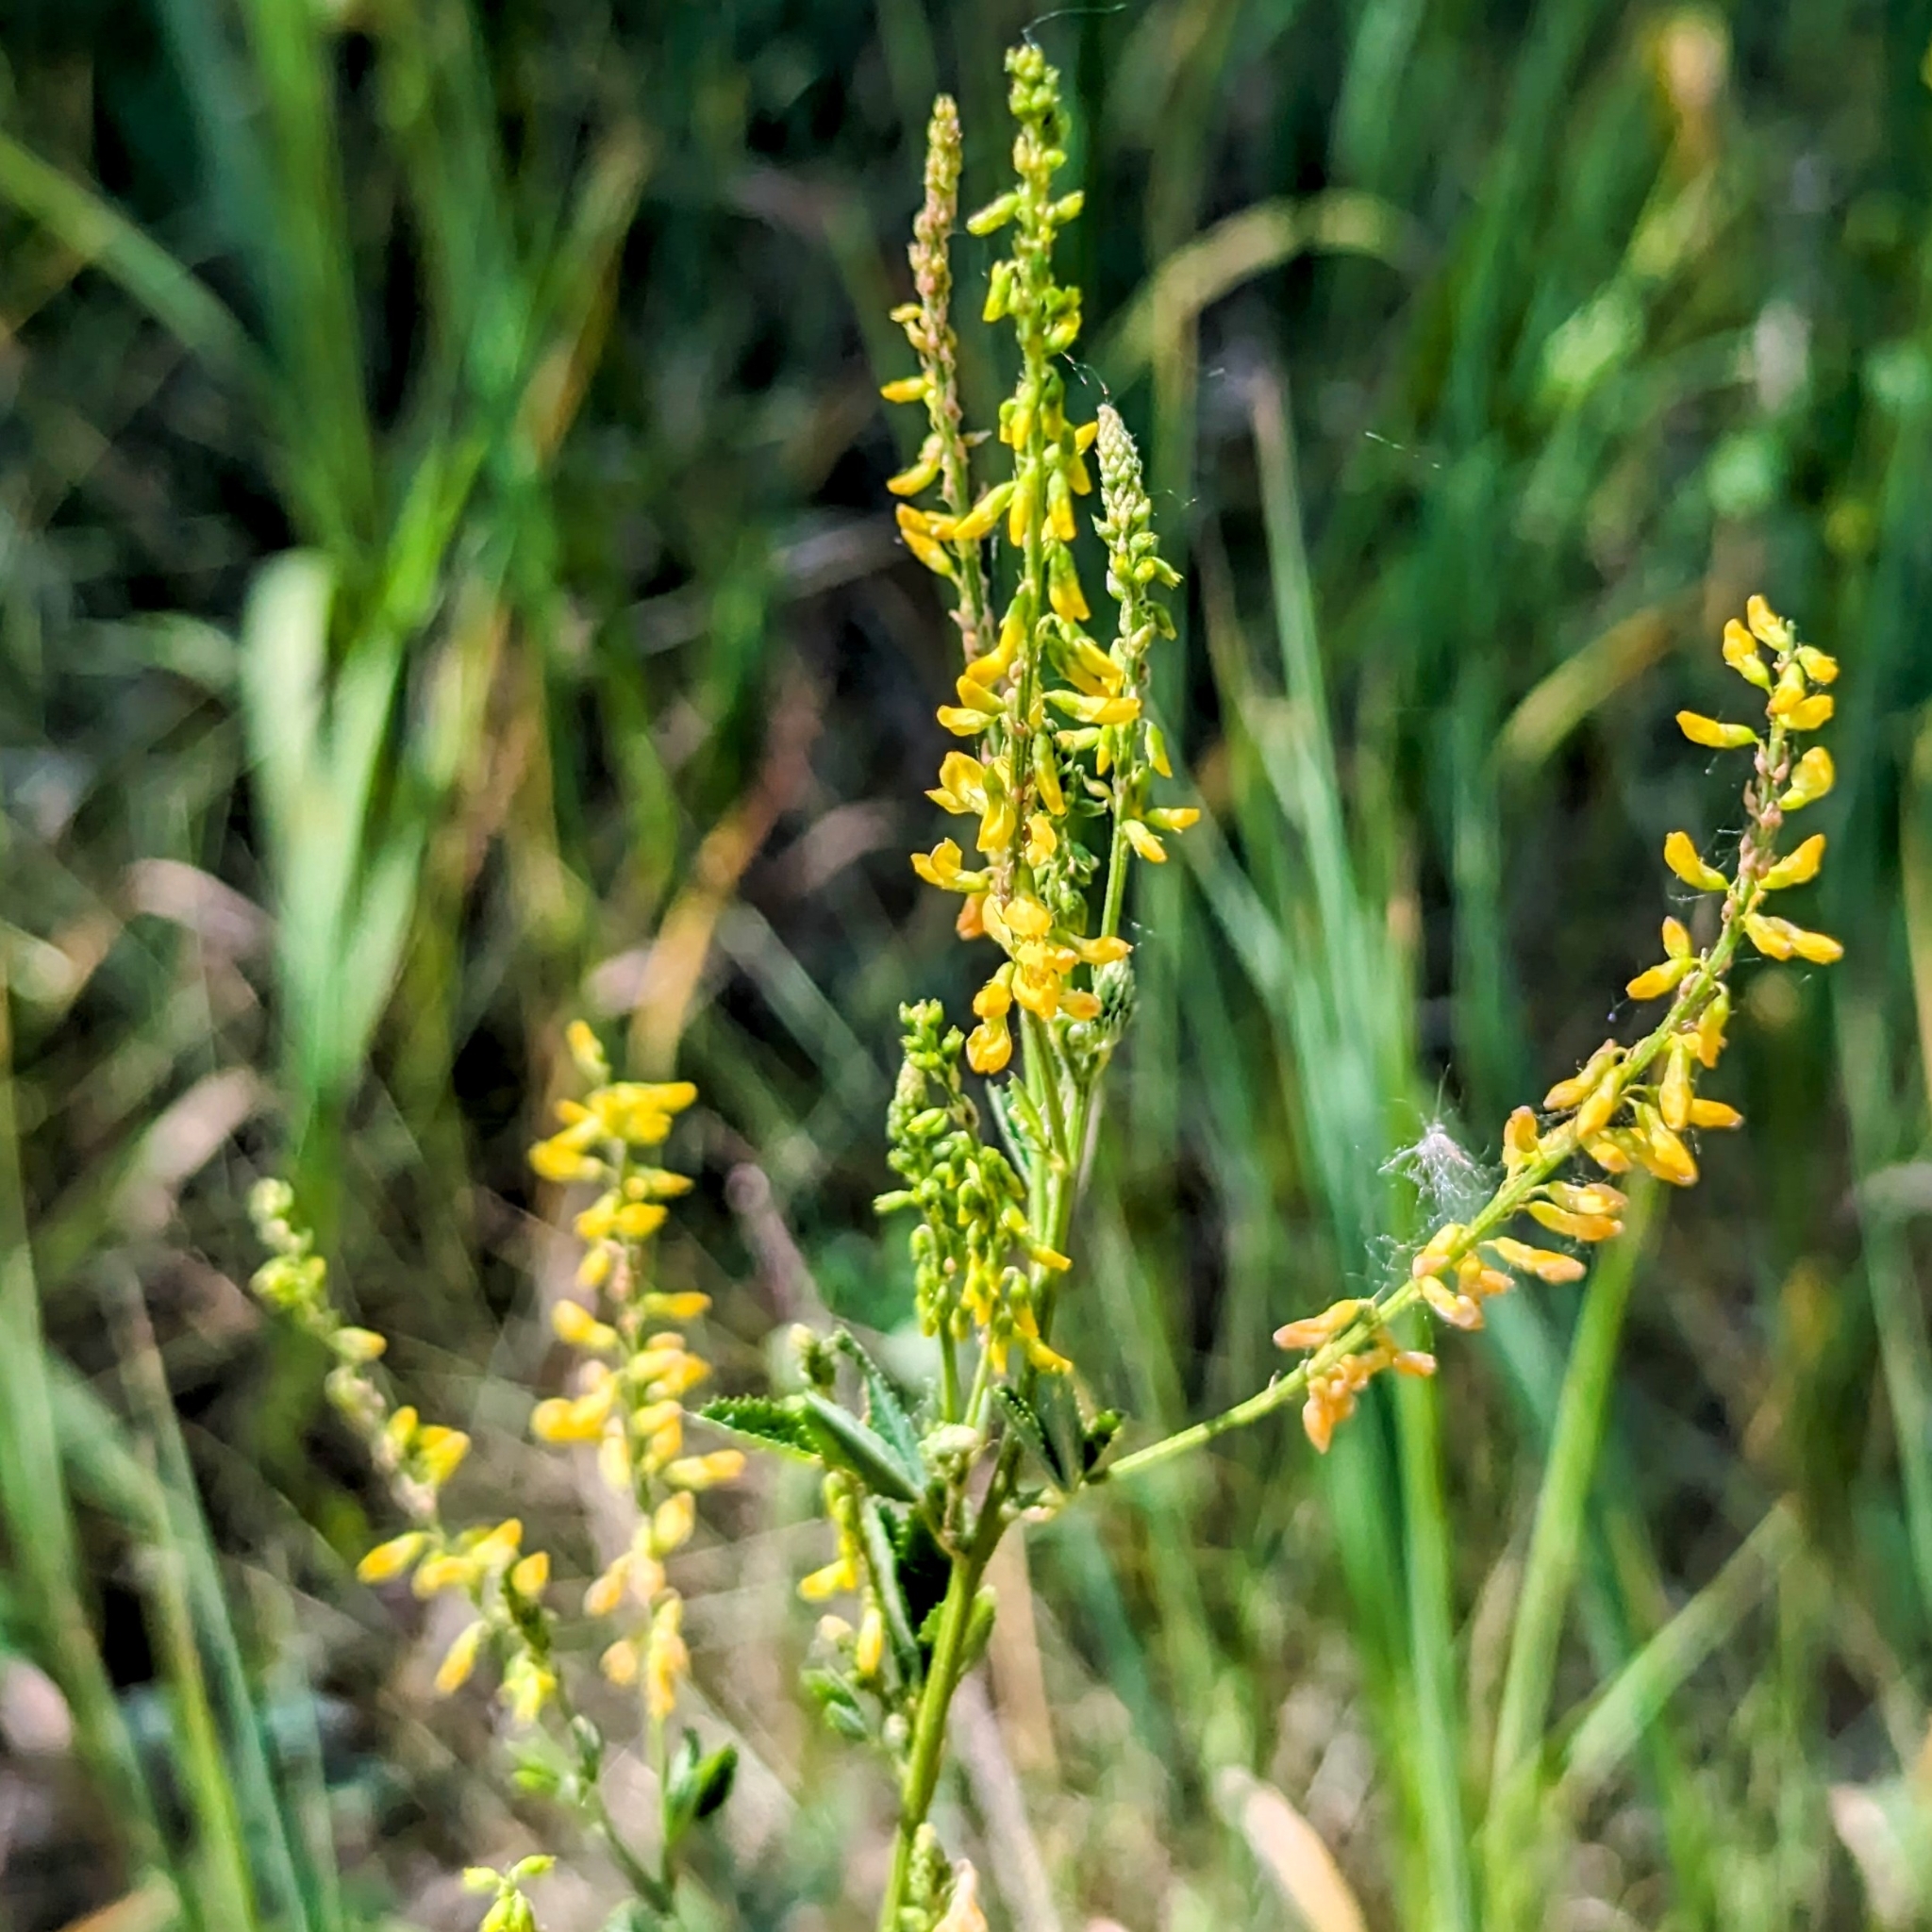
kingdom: Plantae
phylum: Tracheophyta
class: Magnoliopsida
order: Fabales
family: Fabaceae
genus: Melilotus
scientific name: Melilotus officinalis
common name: Sweetclover
